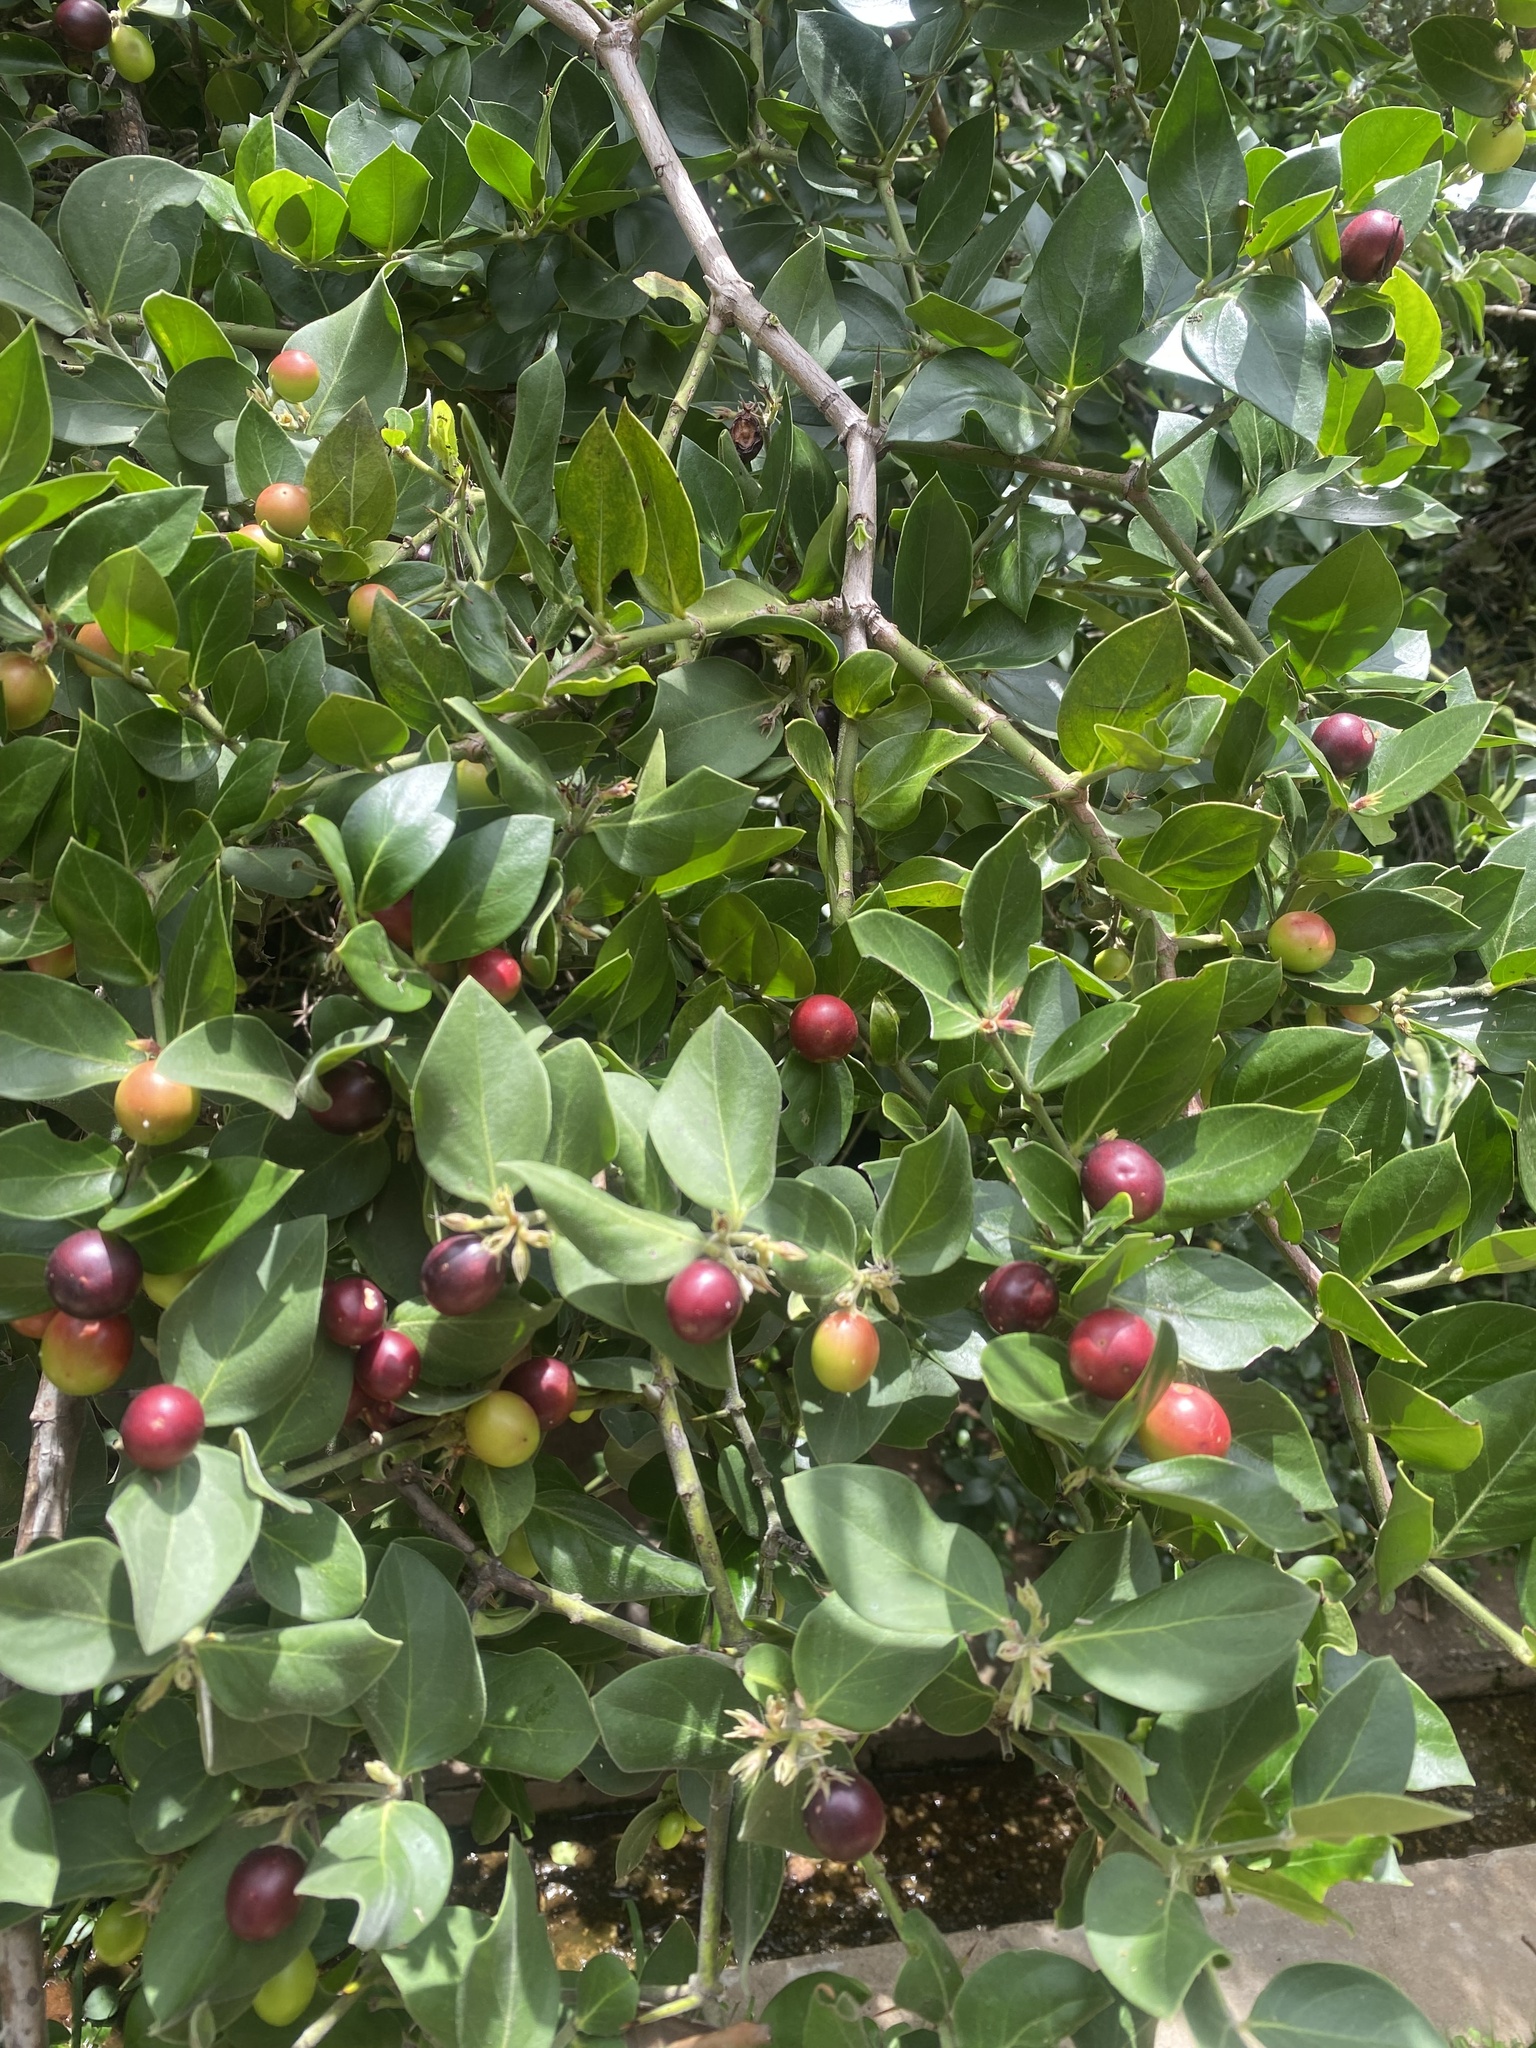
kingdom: Plantae
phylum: Tracheophyta
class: Magnoliopsida
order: Gentianales
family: Apocynaceae
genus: Carissa
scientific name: Carissa spinarum
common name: Egyptian carissa
